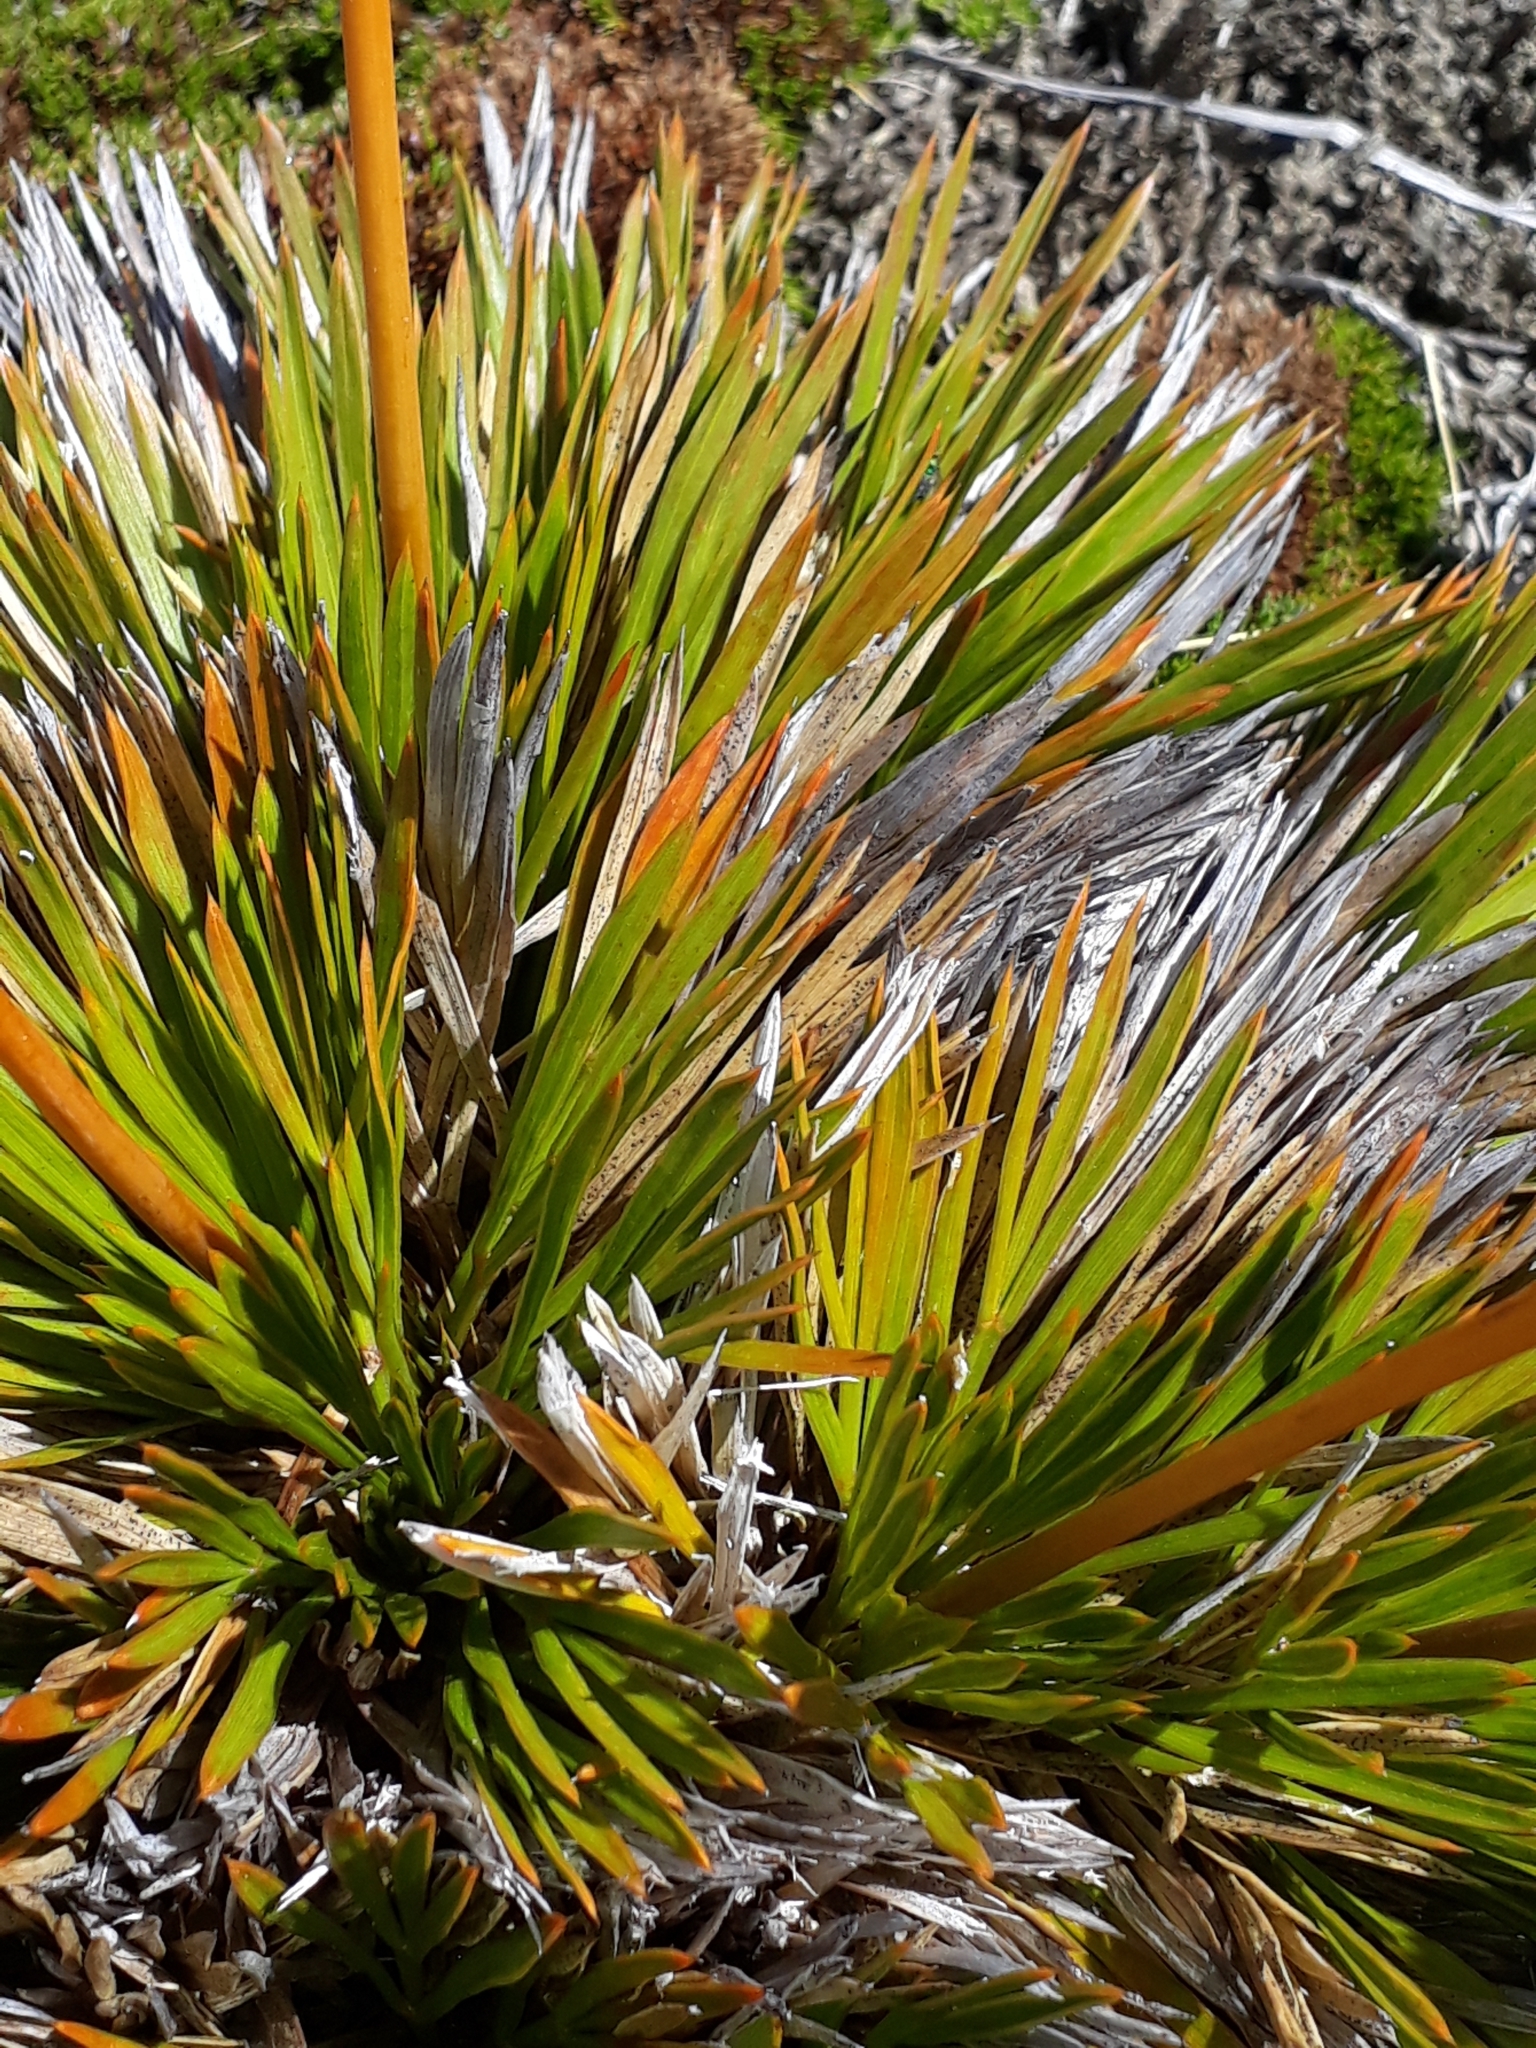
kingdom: Plantae
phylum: Tracheophyta
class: Magnoliopsida
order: Apiales
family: Apiaceae
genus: Aciphylla
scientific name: Aciphylla montana
